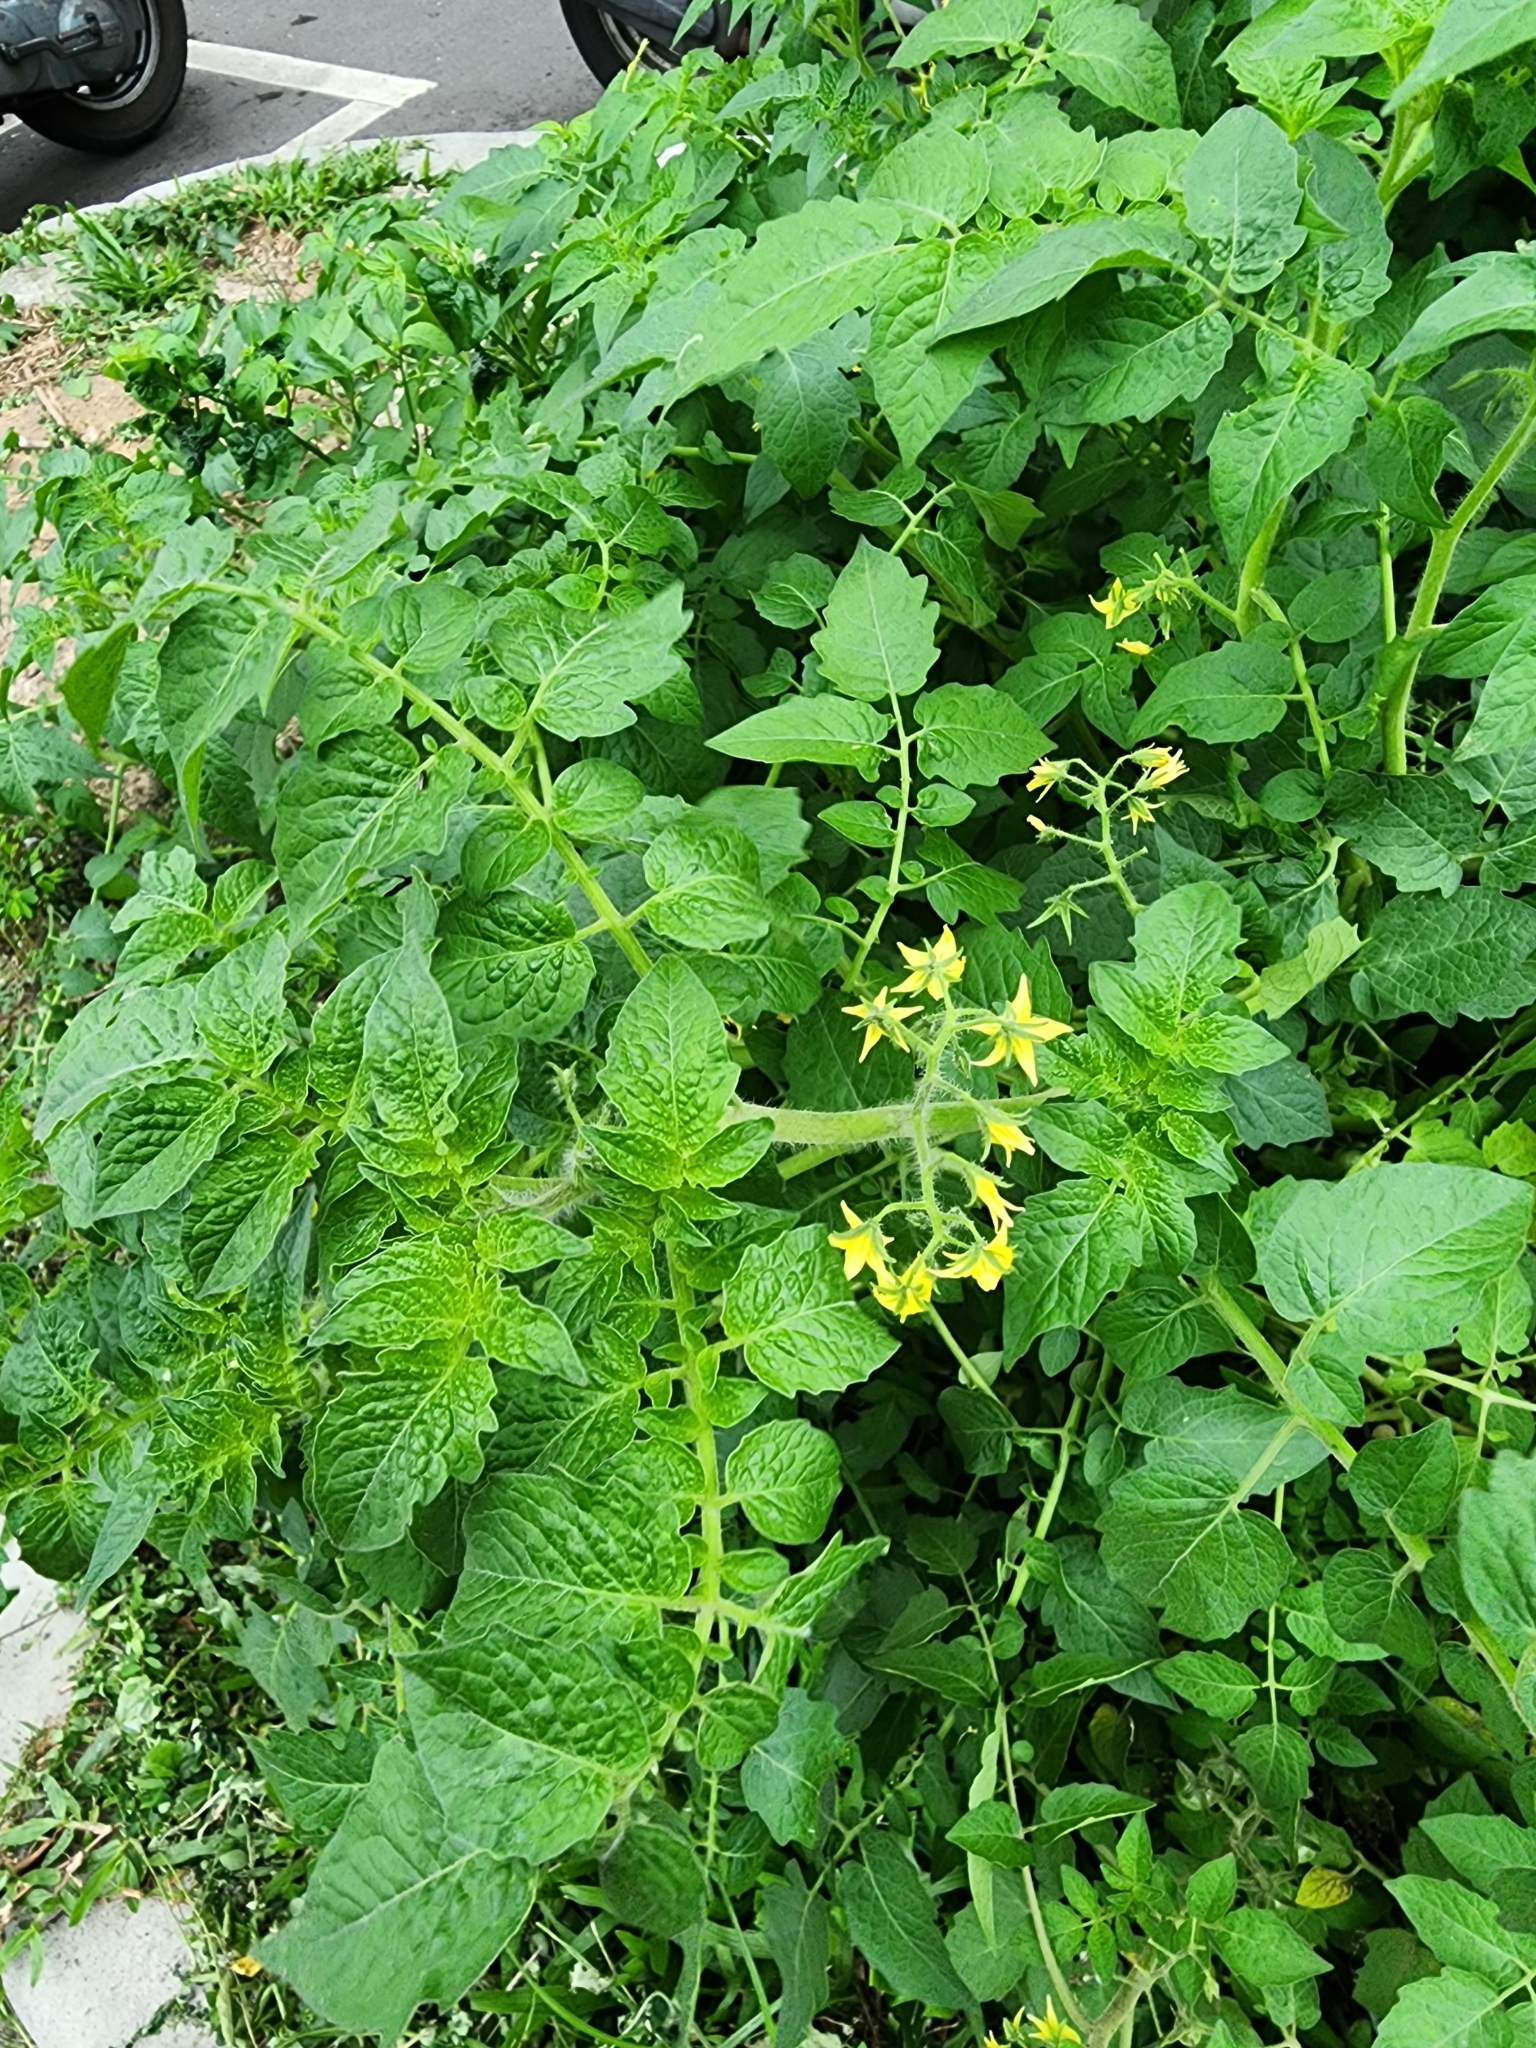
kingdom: Plantae
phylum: Tracheophyta
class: Magnoliopsida
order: Solanales
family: Solanaceae
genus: Solanum
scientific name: Solanum lycopersicum
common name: Garden tomato
